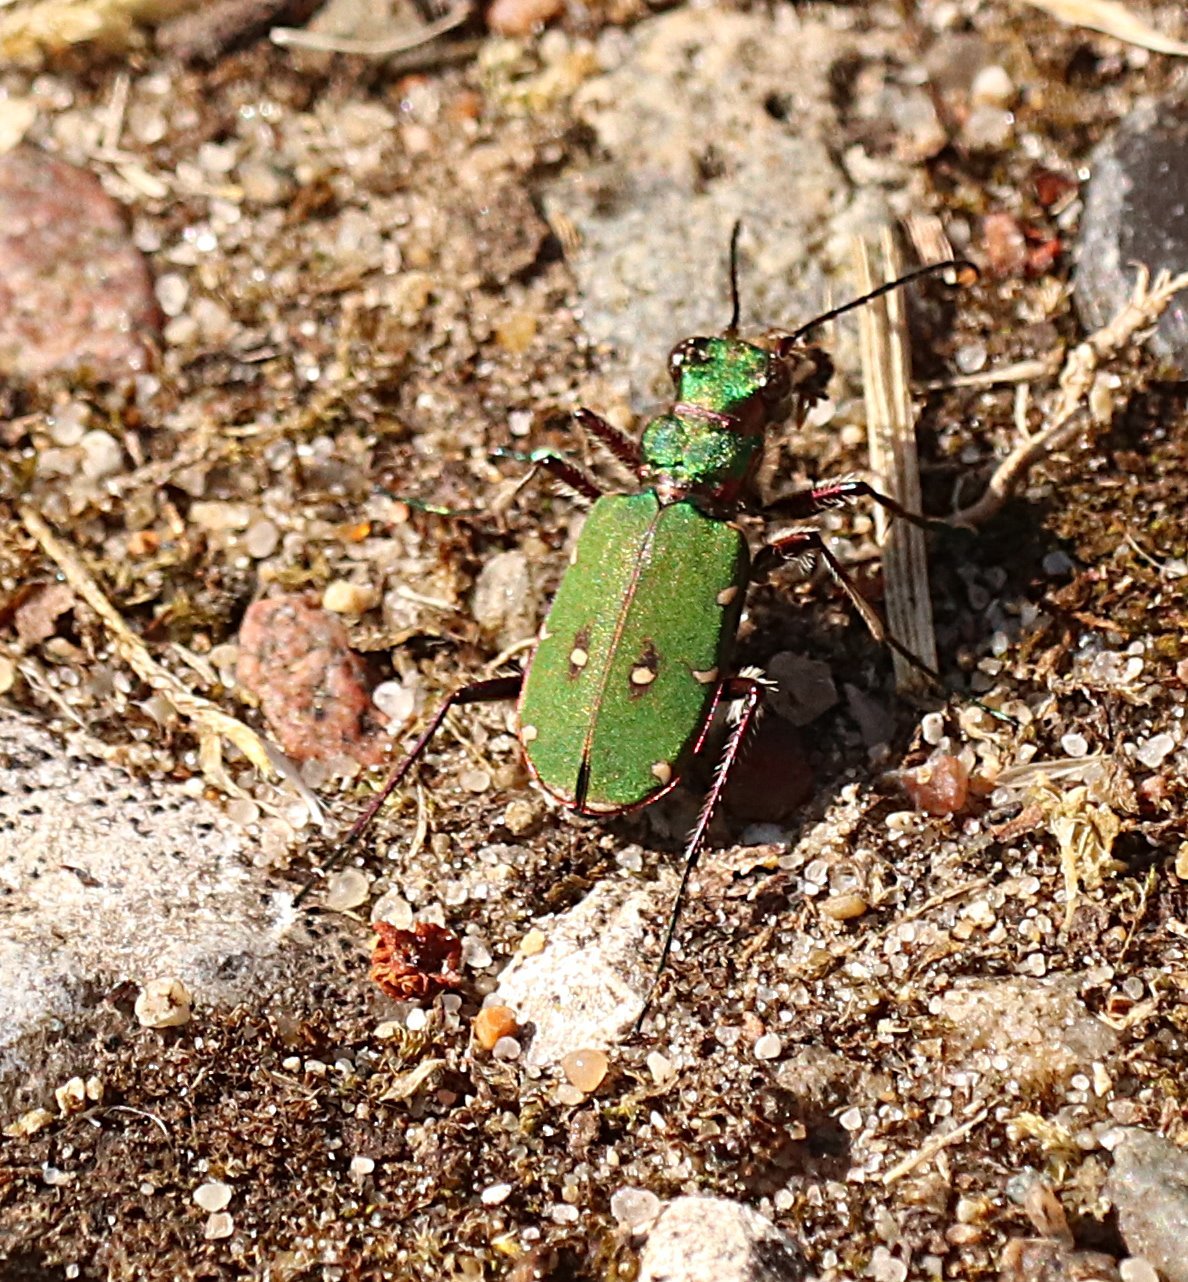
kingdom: Animalia
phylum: Arthropoda
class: Insecta
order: Coleoptera
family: Carabidae
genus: Cicindela
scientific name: Cicindela campestris
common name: Common tiger beetle
